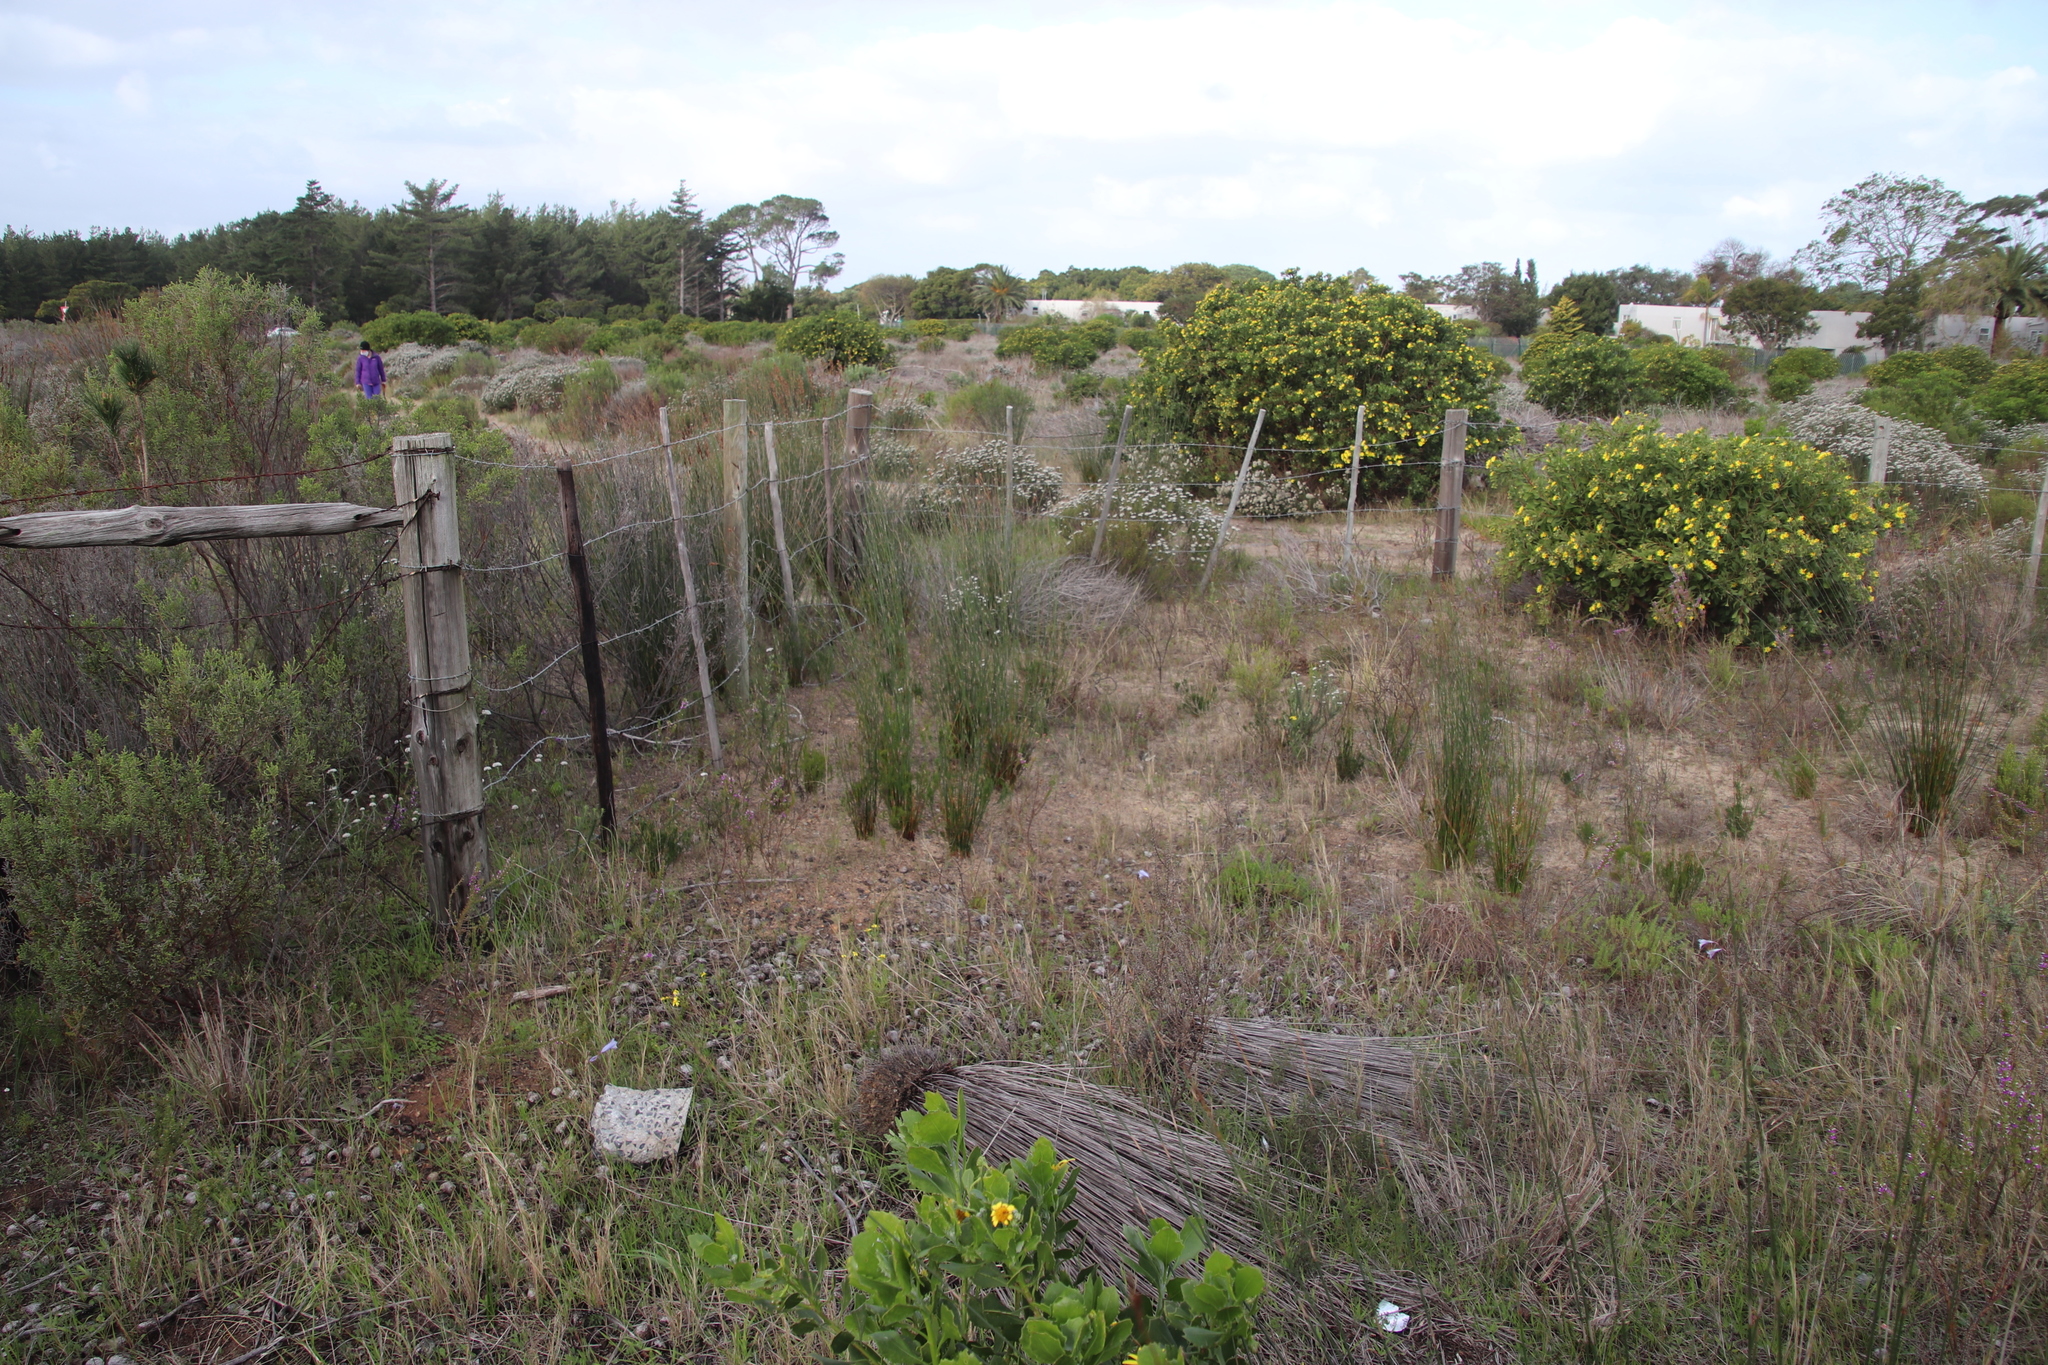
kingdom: Plantae
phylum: Tracheophyta
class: Liliopsida
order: Poales
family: Restionaceae
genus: Thamnochortus
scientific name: Thamnochortus insignis
